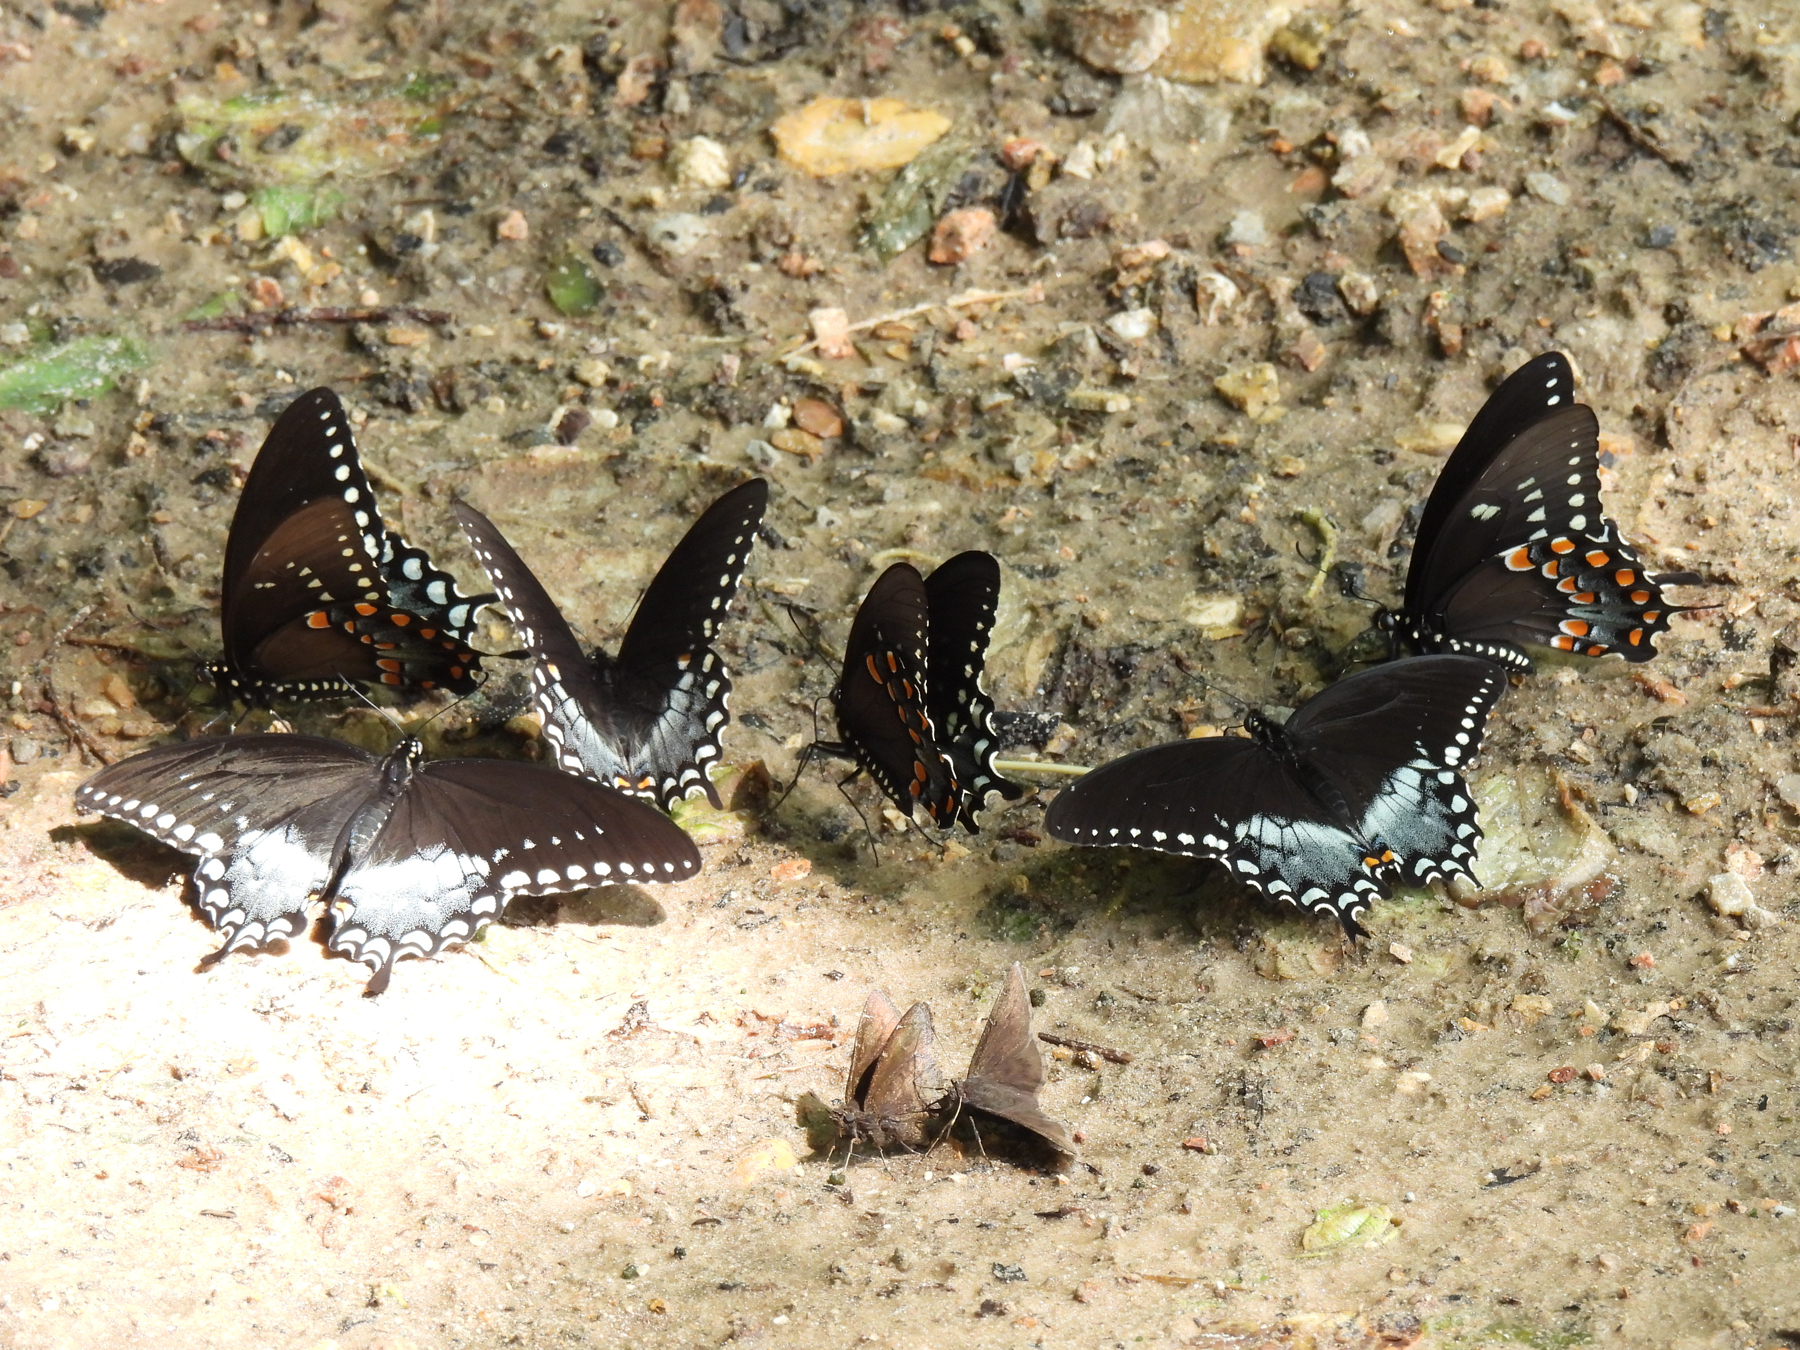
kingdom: Animalia
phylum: Arthropoda
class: Insecta
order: Lepidoptera
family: Papilionidae
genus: Papilio
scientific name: Papilio troilus
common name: Spicebush swallowtail
